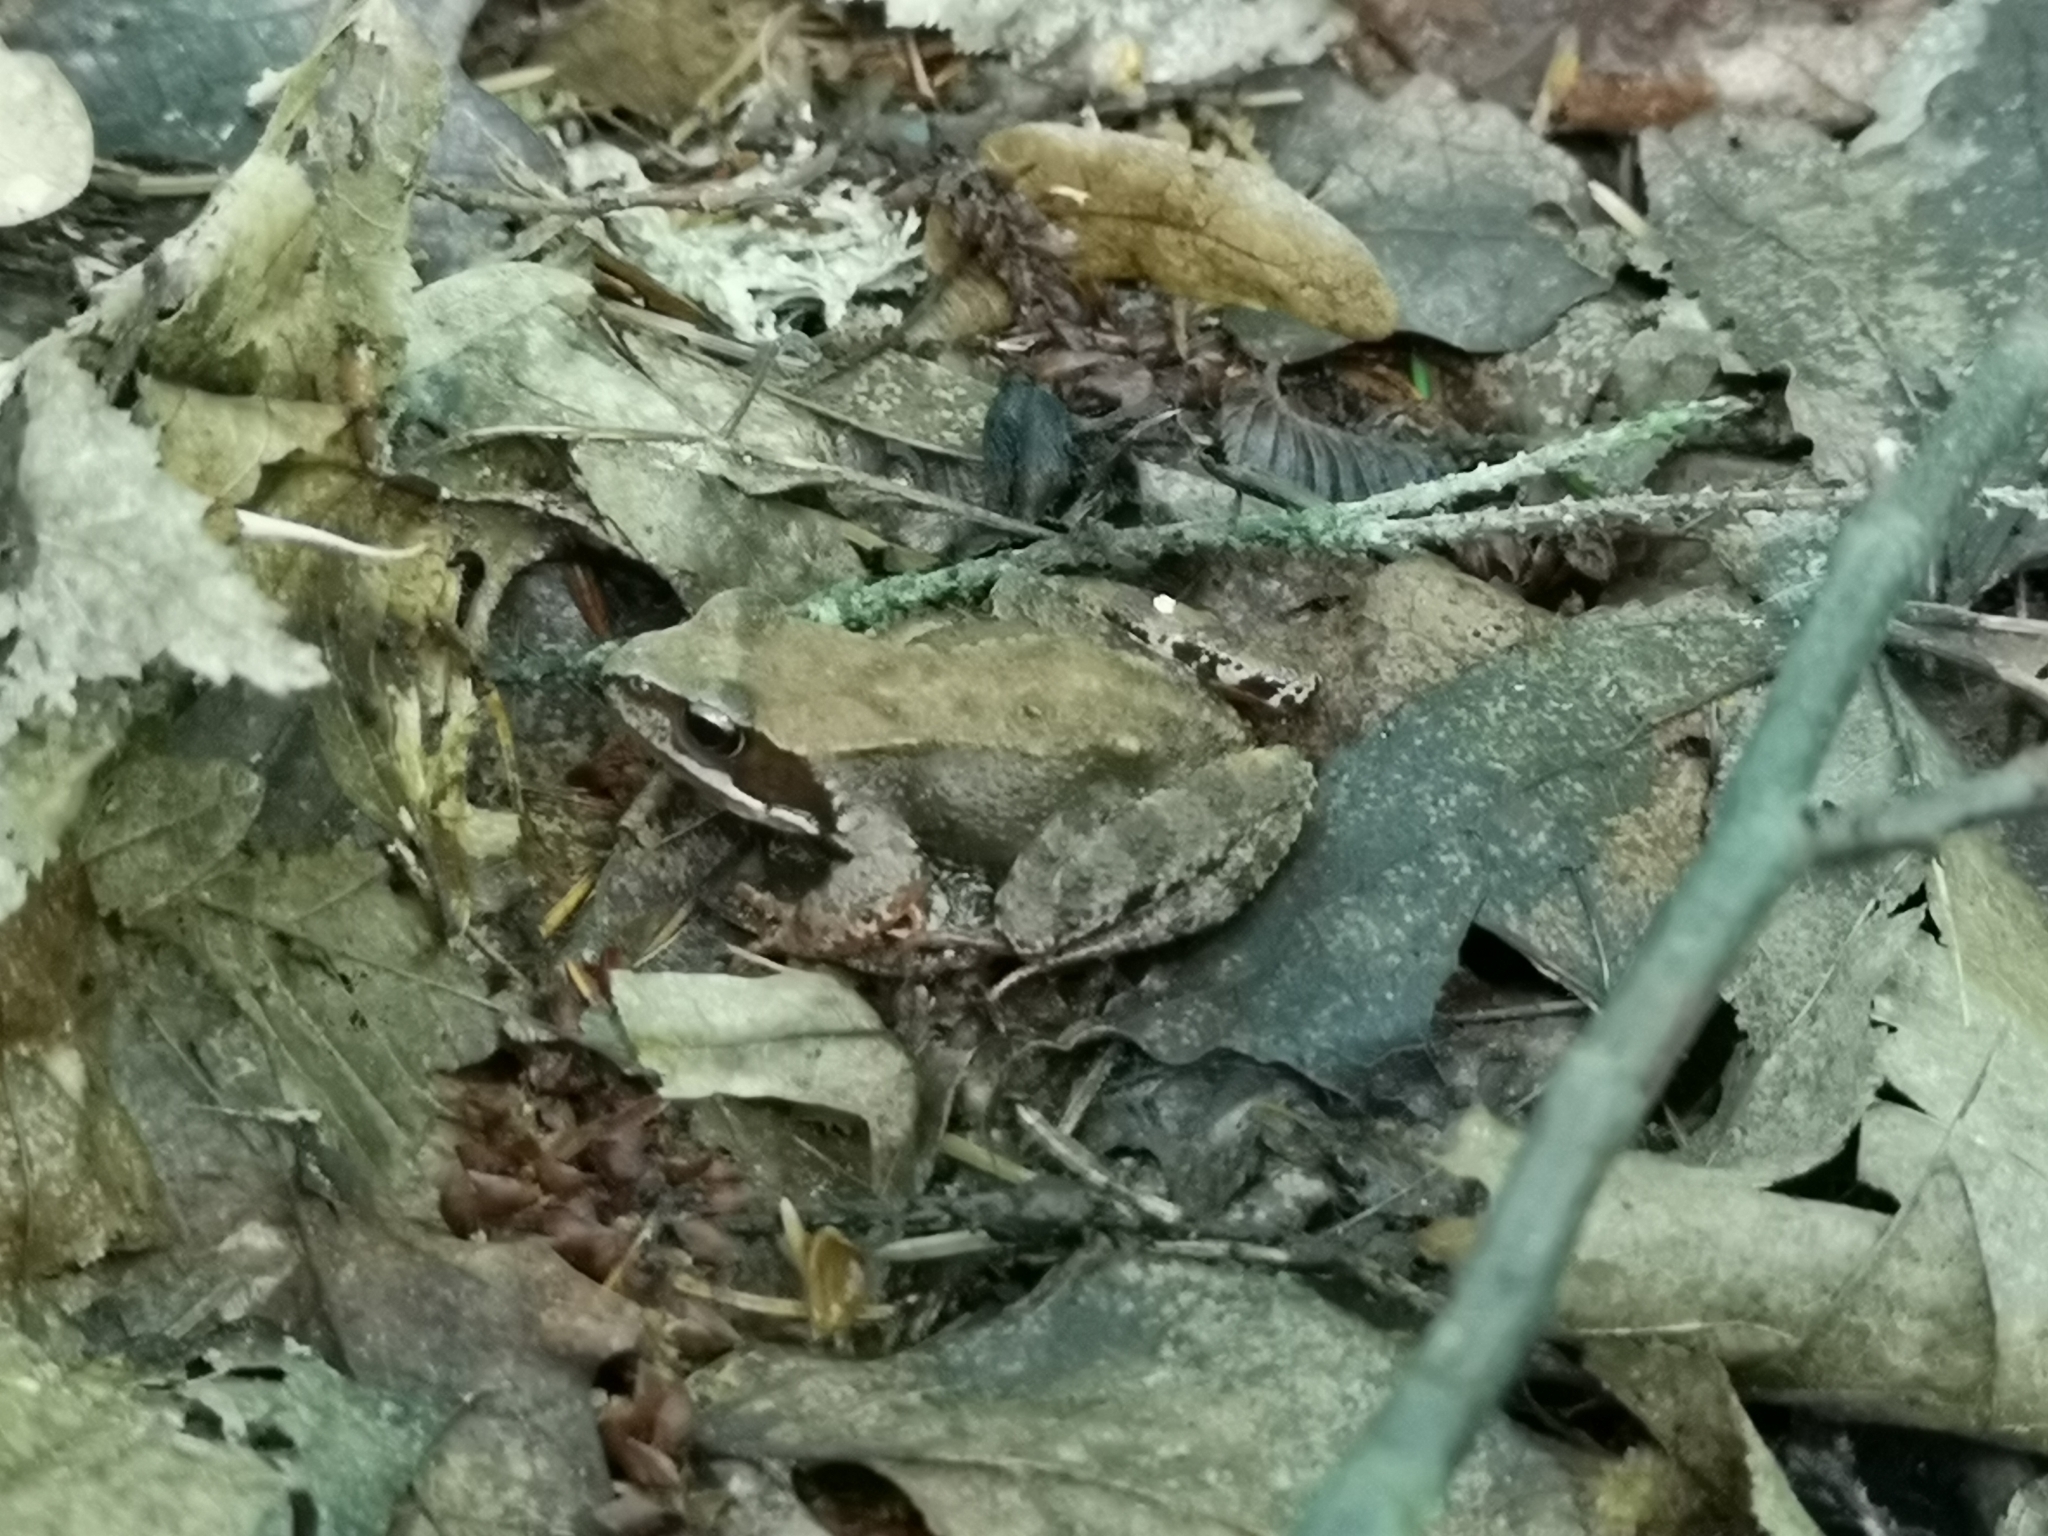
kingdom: Animalia
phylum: Chordata
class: Amphibia
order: Anura
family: Ranidae
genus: Rana
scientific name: Rana temporaria
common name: Common frog
